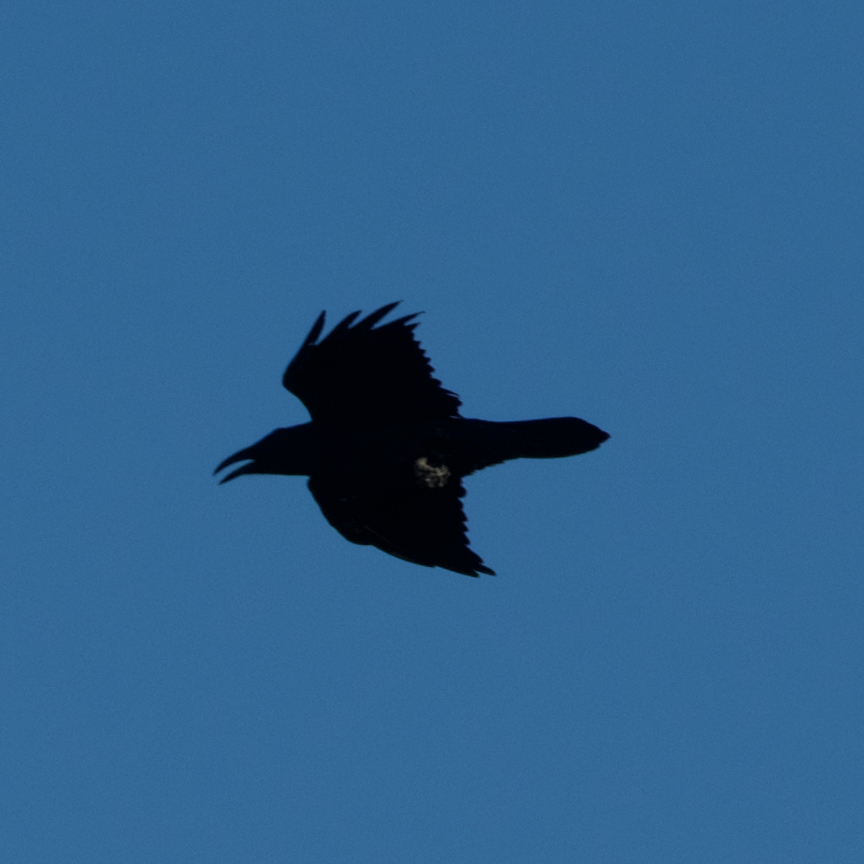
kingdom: Animalia
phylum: Chordata
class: Aves
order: Passeriformes
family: Corvidae
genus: Corvus
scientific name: Corvus corax
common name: Common raven
